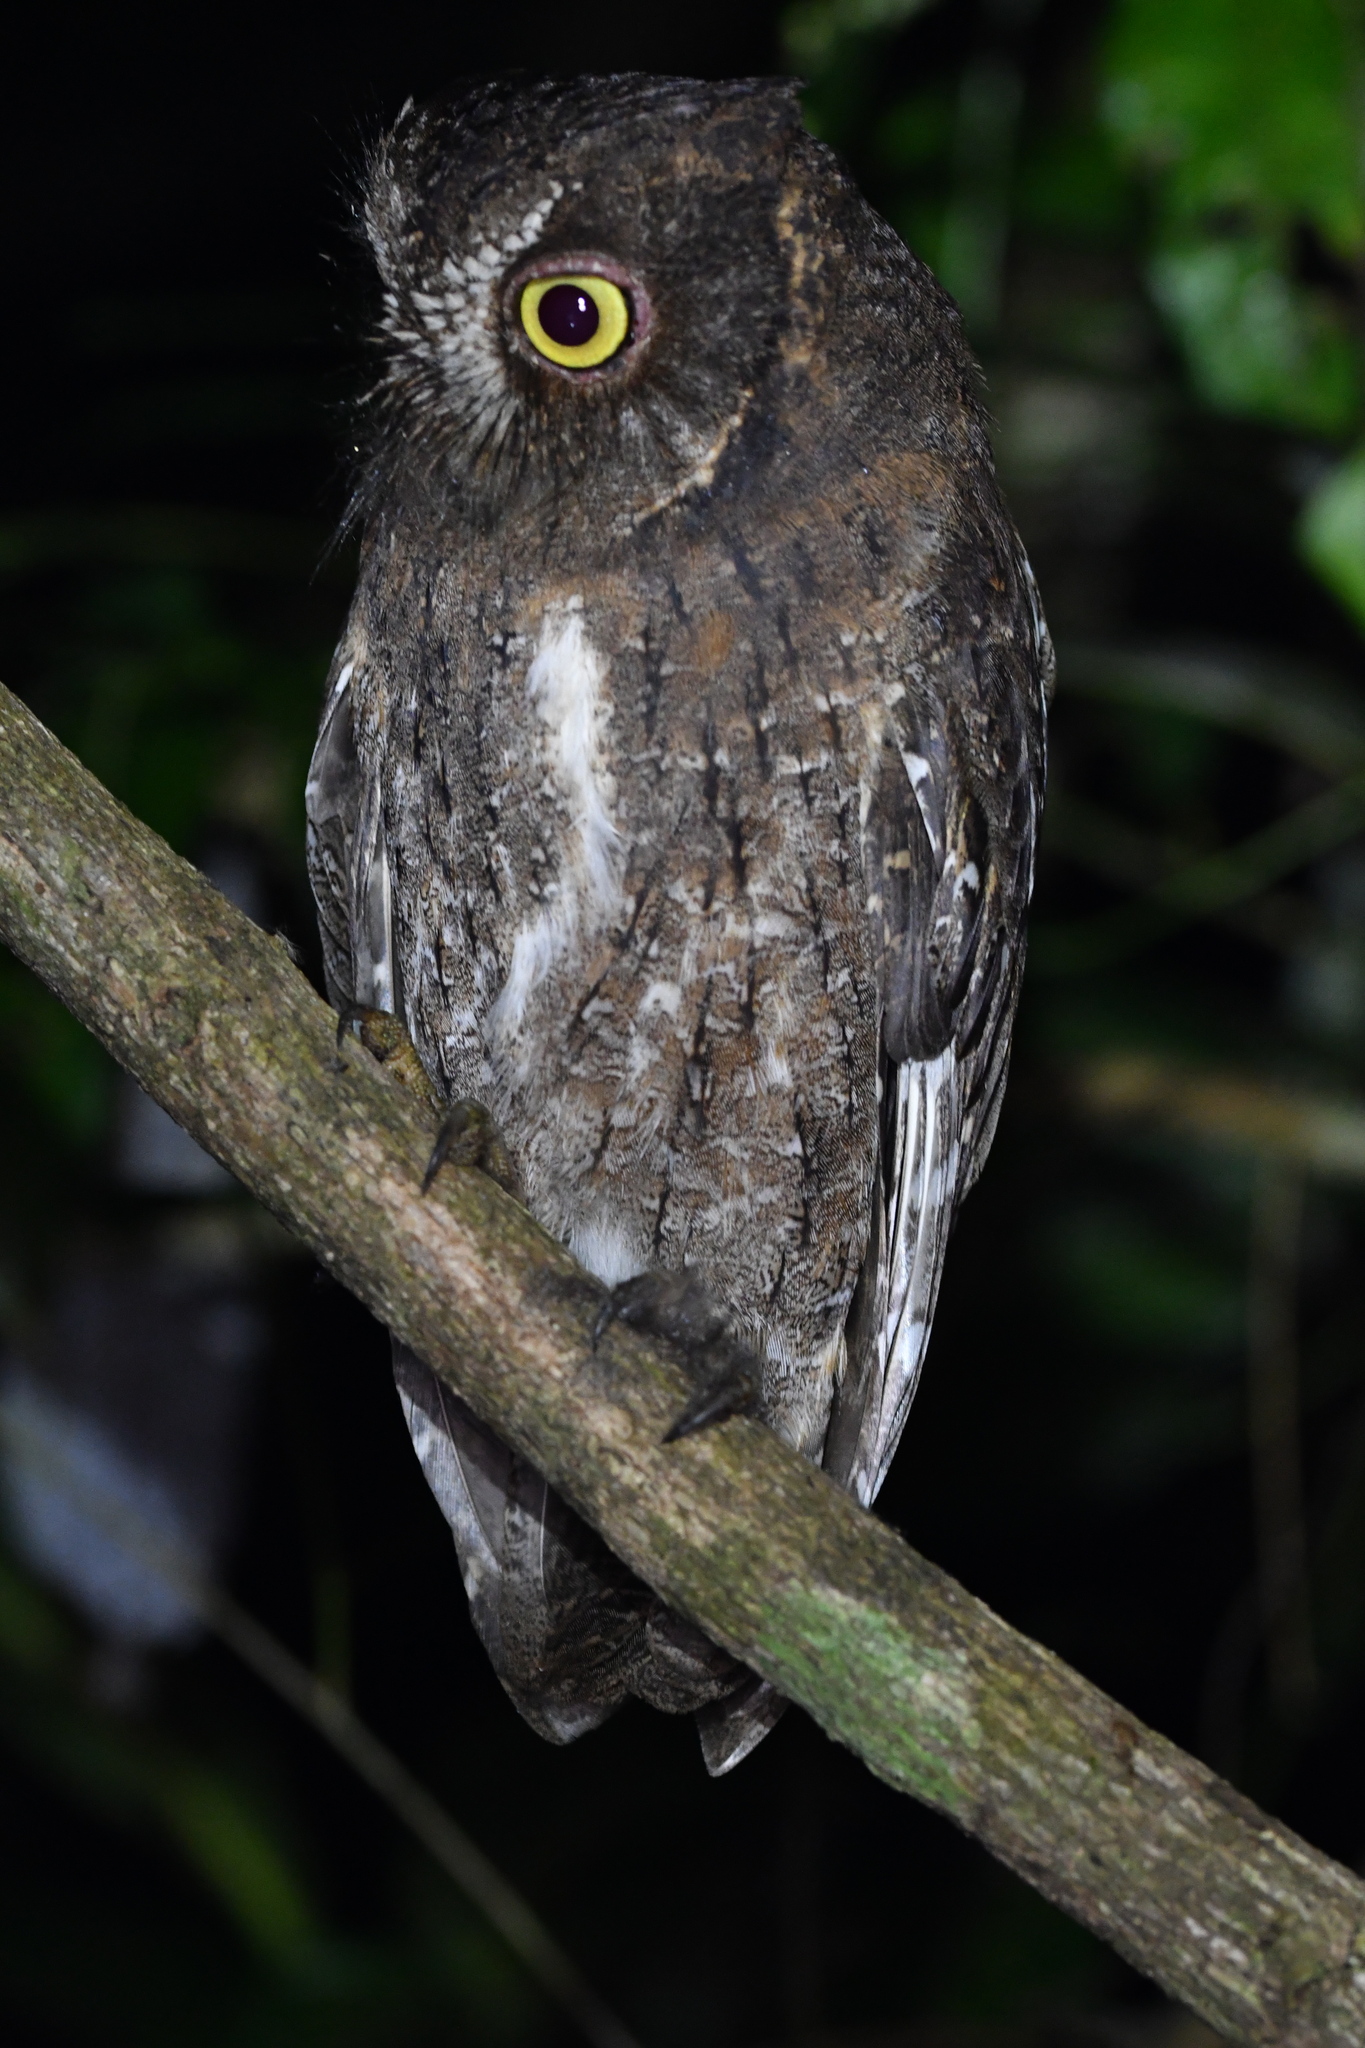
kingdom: Animalia
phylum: Chordata
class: Aves
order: Strigiformes
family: Strigidae
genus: Otus
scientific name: Otus rutilus
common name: Rainforest scops owl
